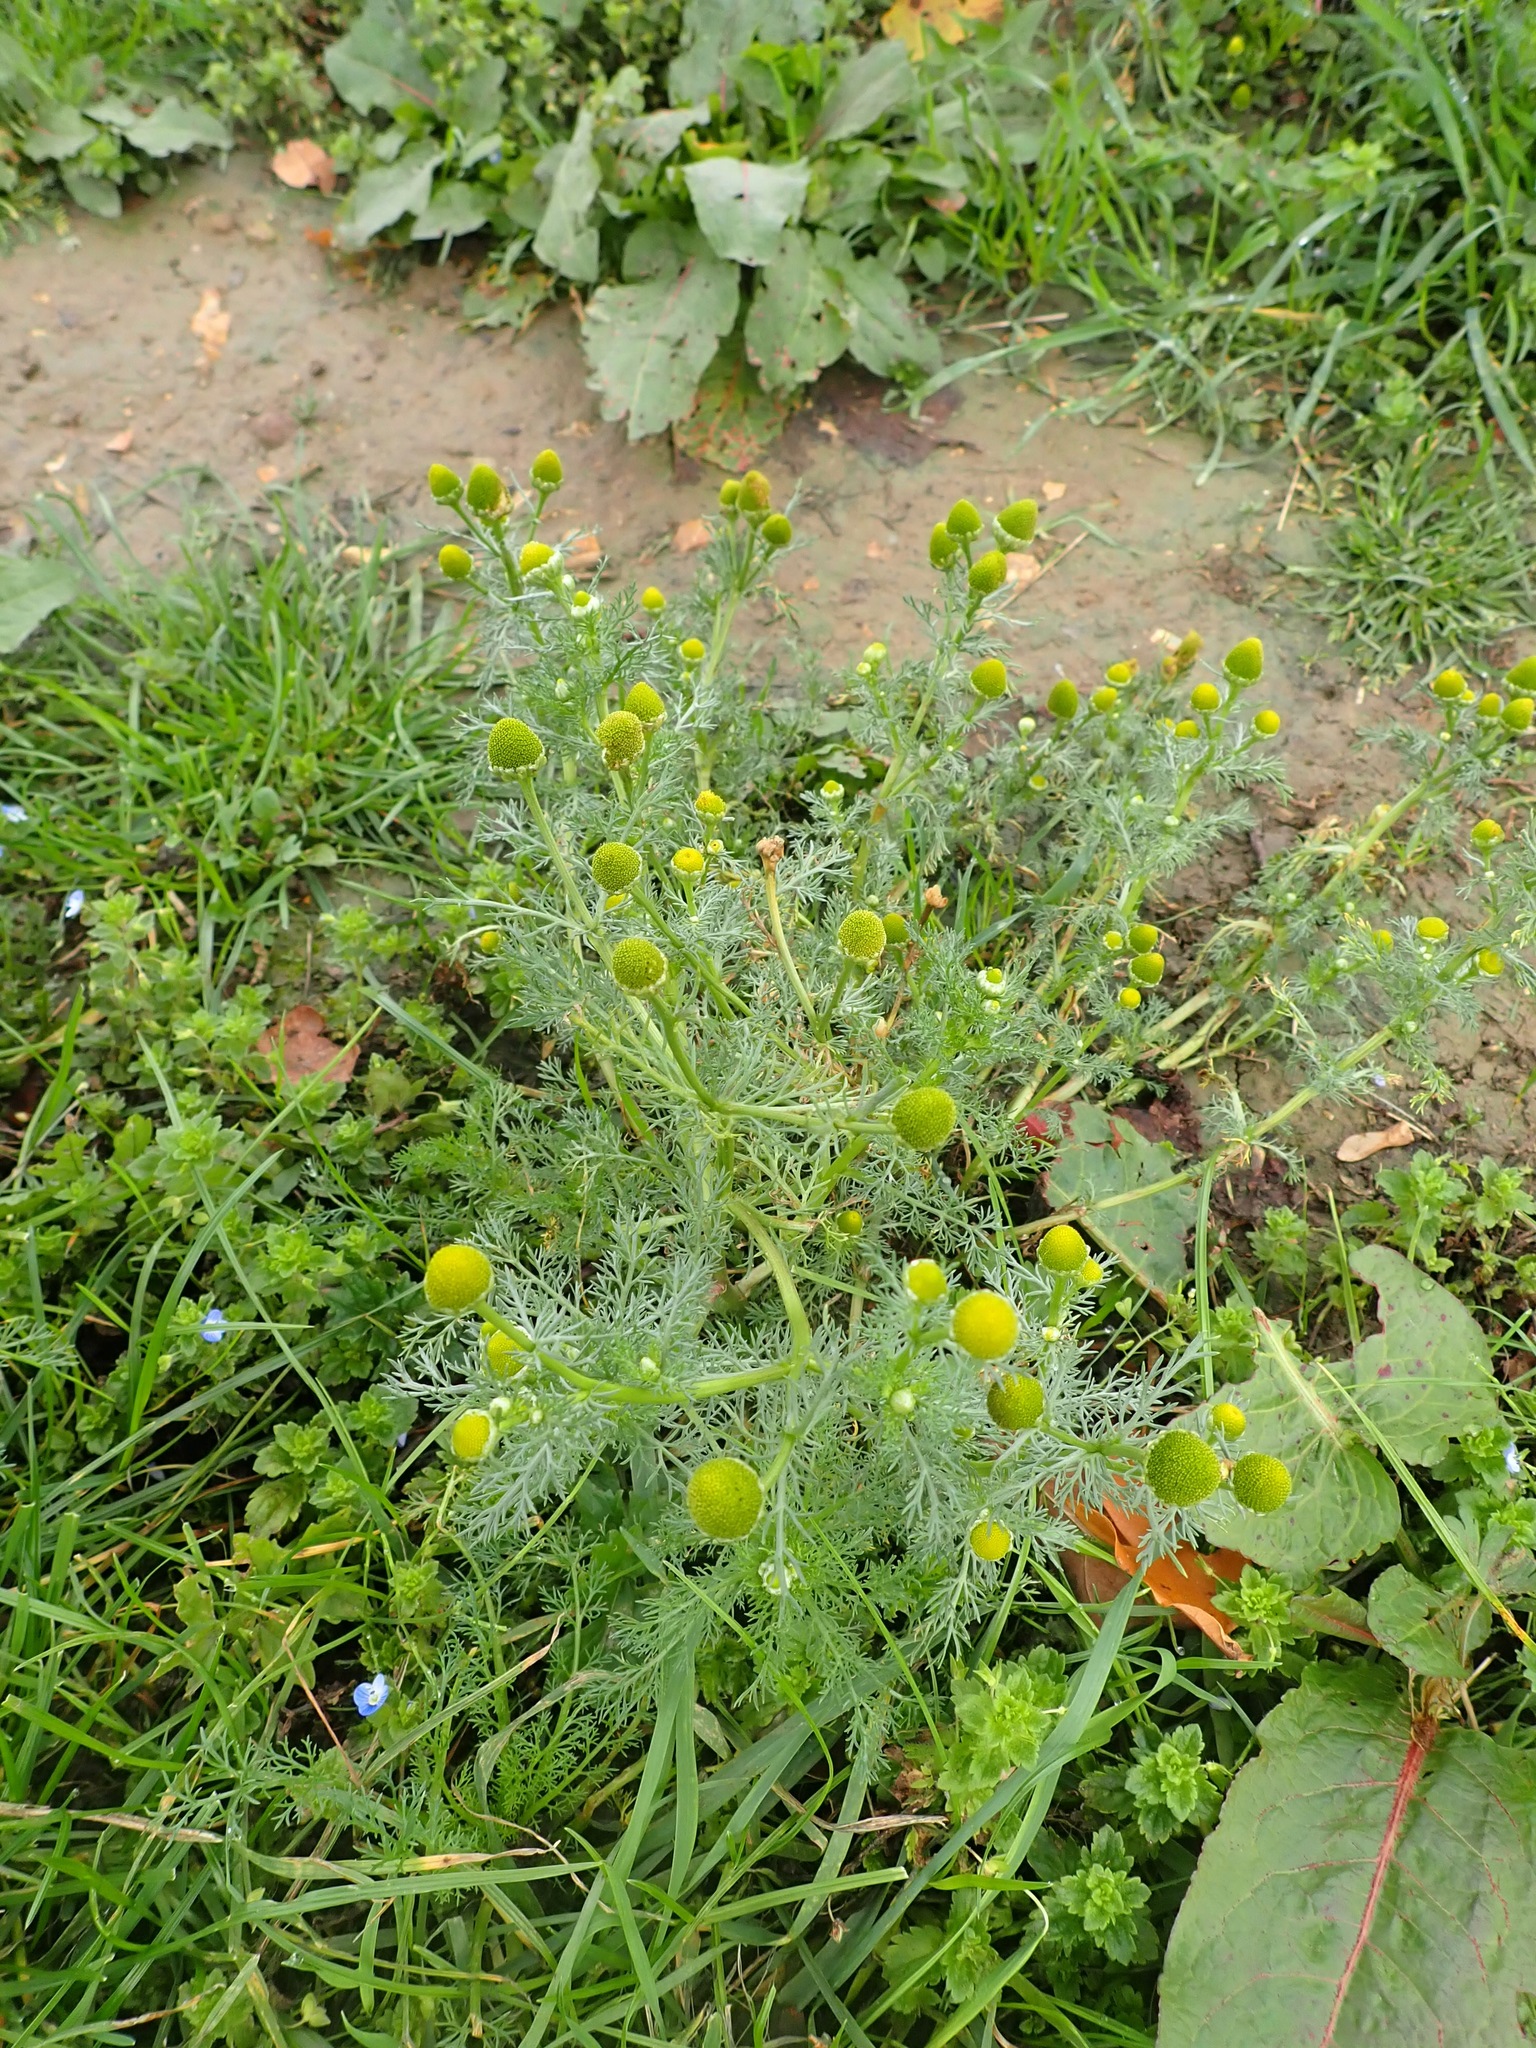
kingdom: Plantae
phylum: Tracheophyta
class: Magnoliopsida
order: Asterales
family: Asteraceae
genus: Matricaria
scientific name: Matricaria discoidea
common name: Disc mayweed
